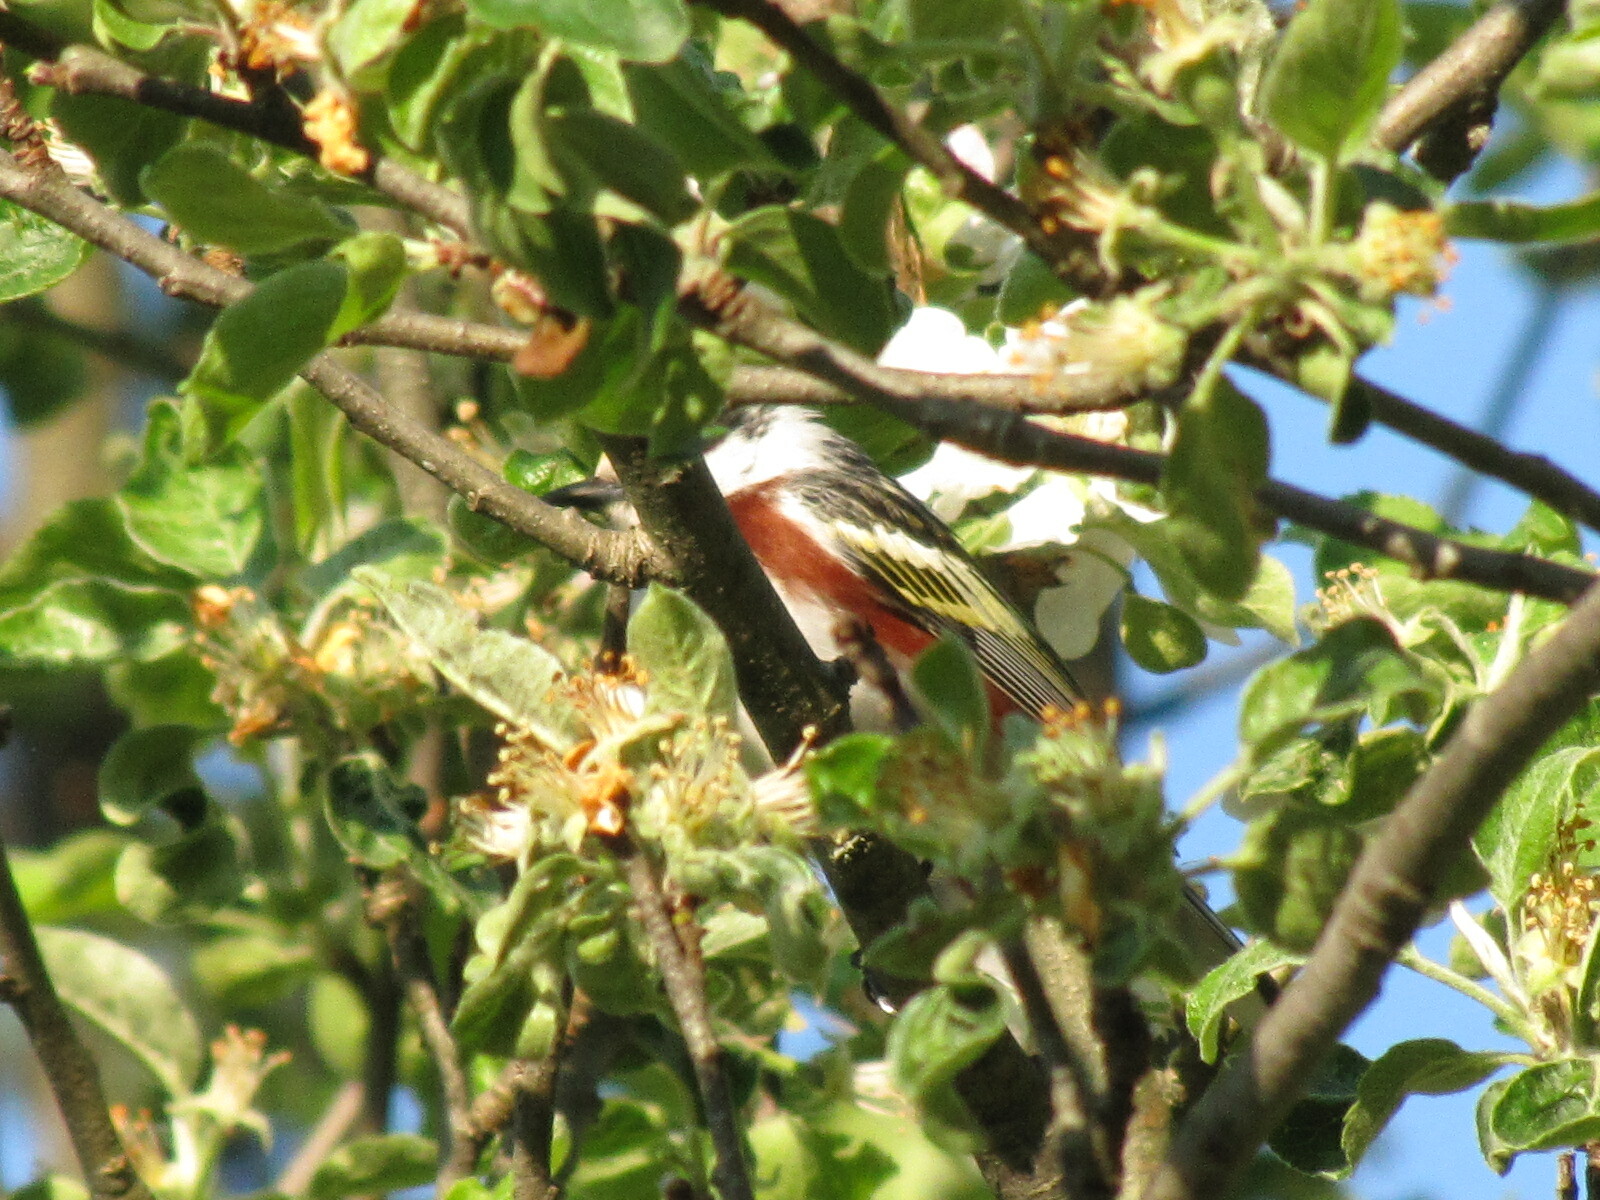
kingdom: Animalia
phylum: Chordata
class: Aves
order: Passeriformes
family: Parulidae
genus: Setophaga
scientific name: Setophaga pensylvanica
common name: Chestnut-sided warbler
